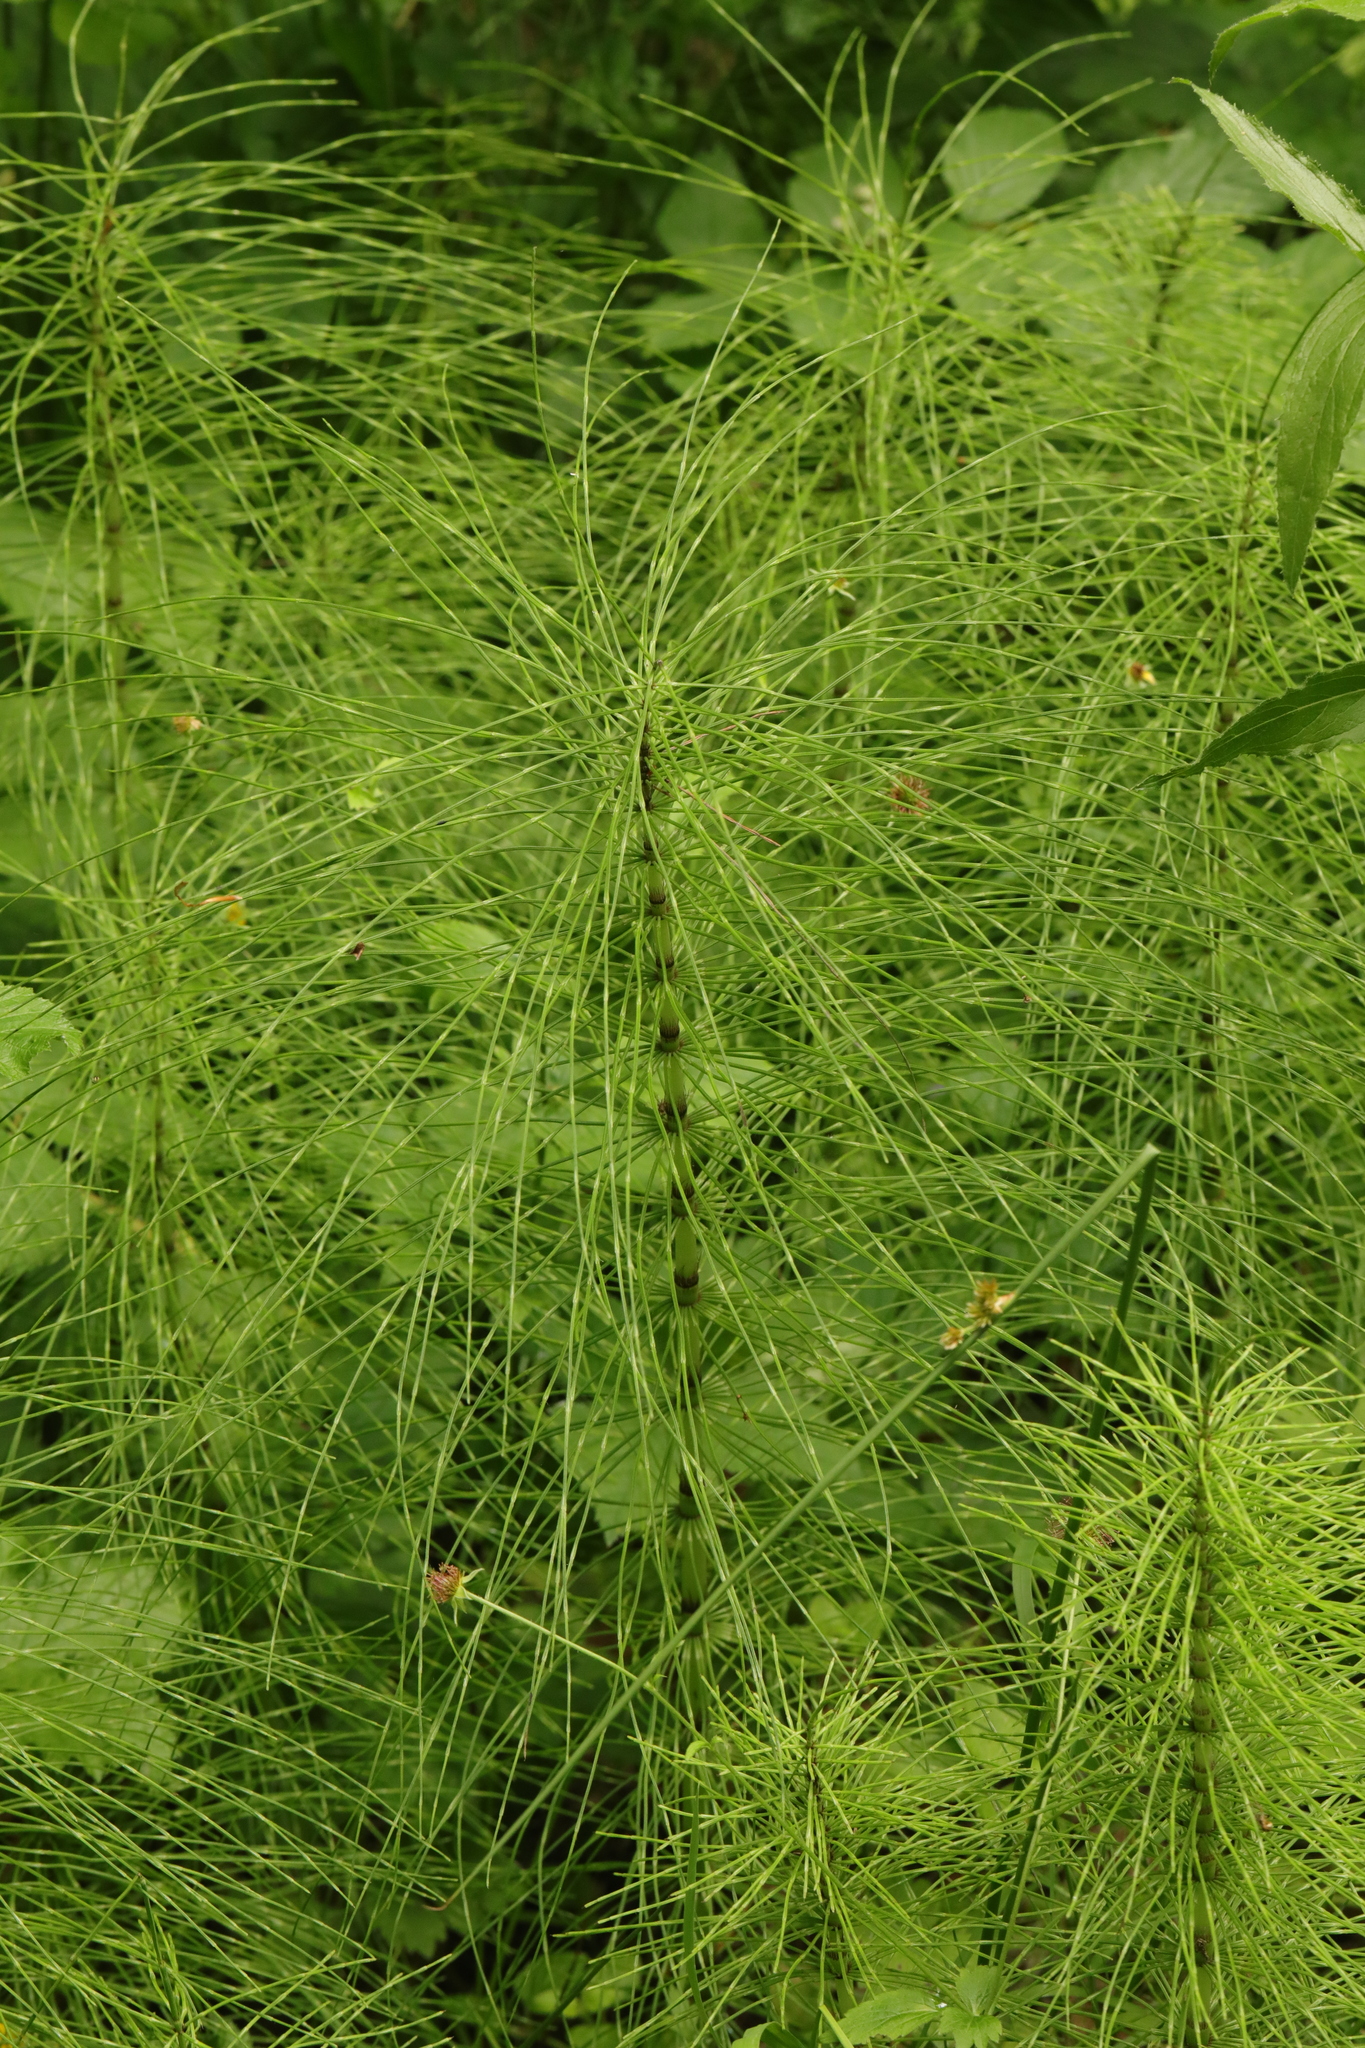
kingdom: Plantae
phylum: Tracheophyta
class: Polypodiopsida
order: Equisetales
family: Equisetaceae
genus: Equisetum
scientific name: Equisetum telmateia
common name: Great horsetail
